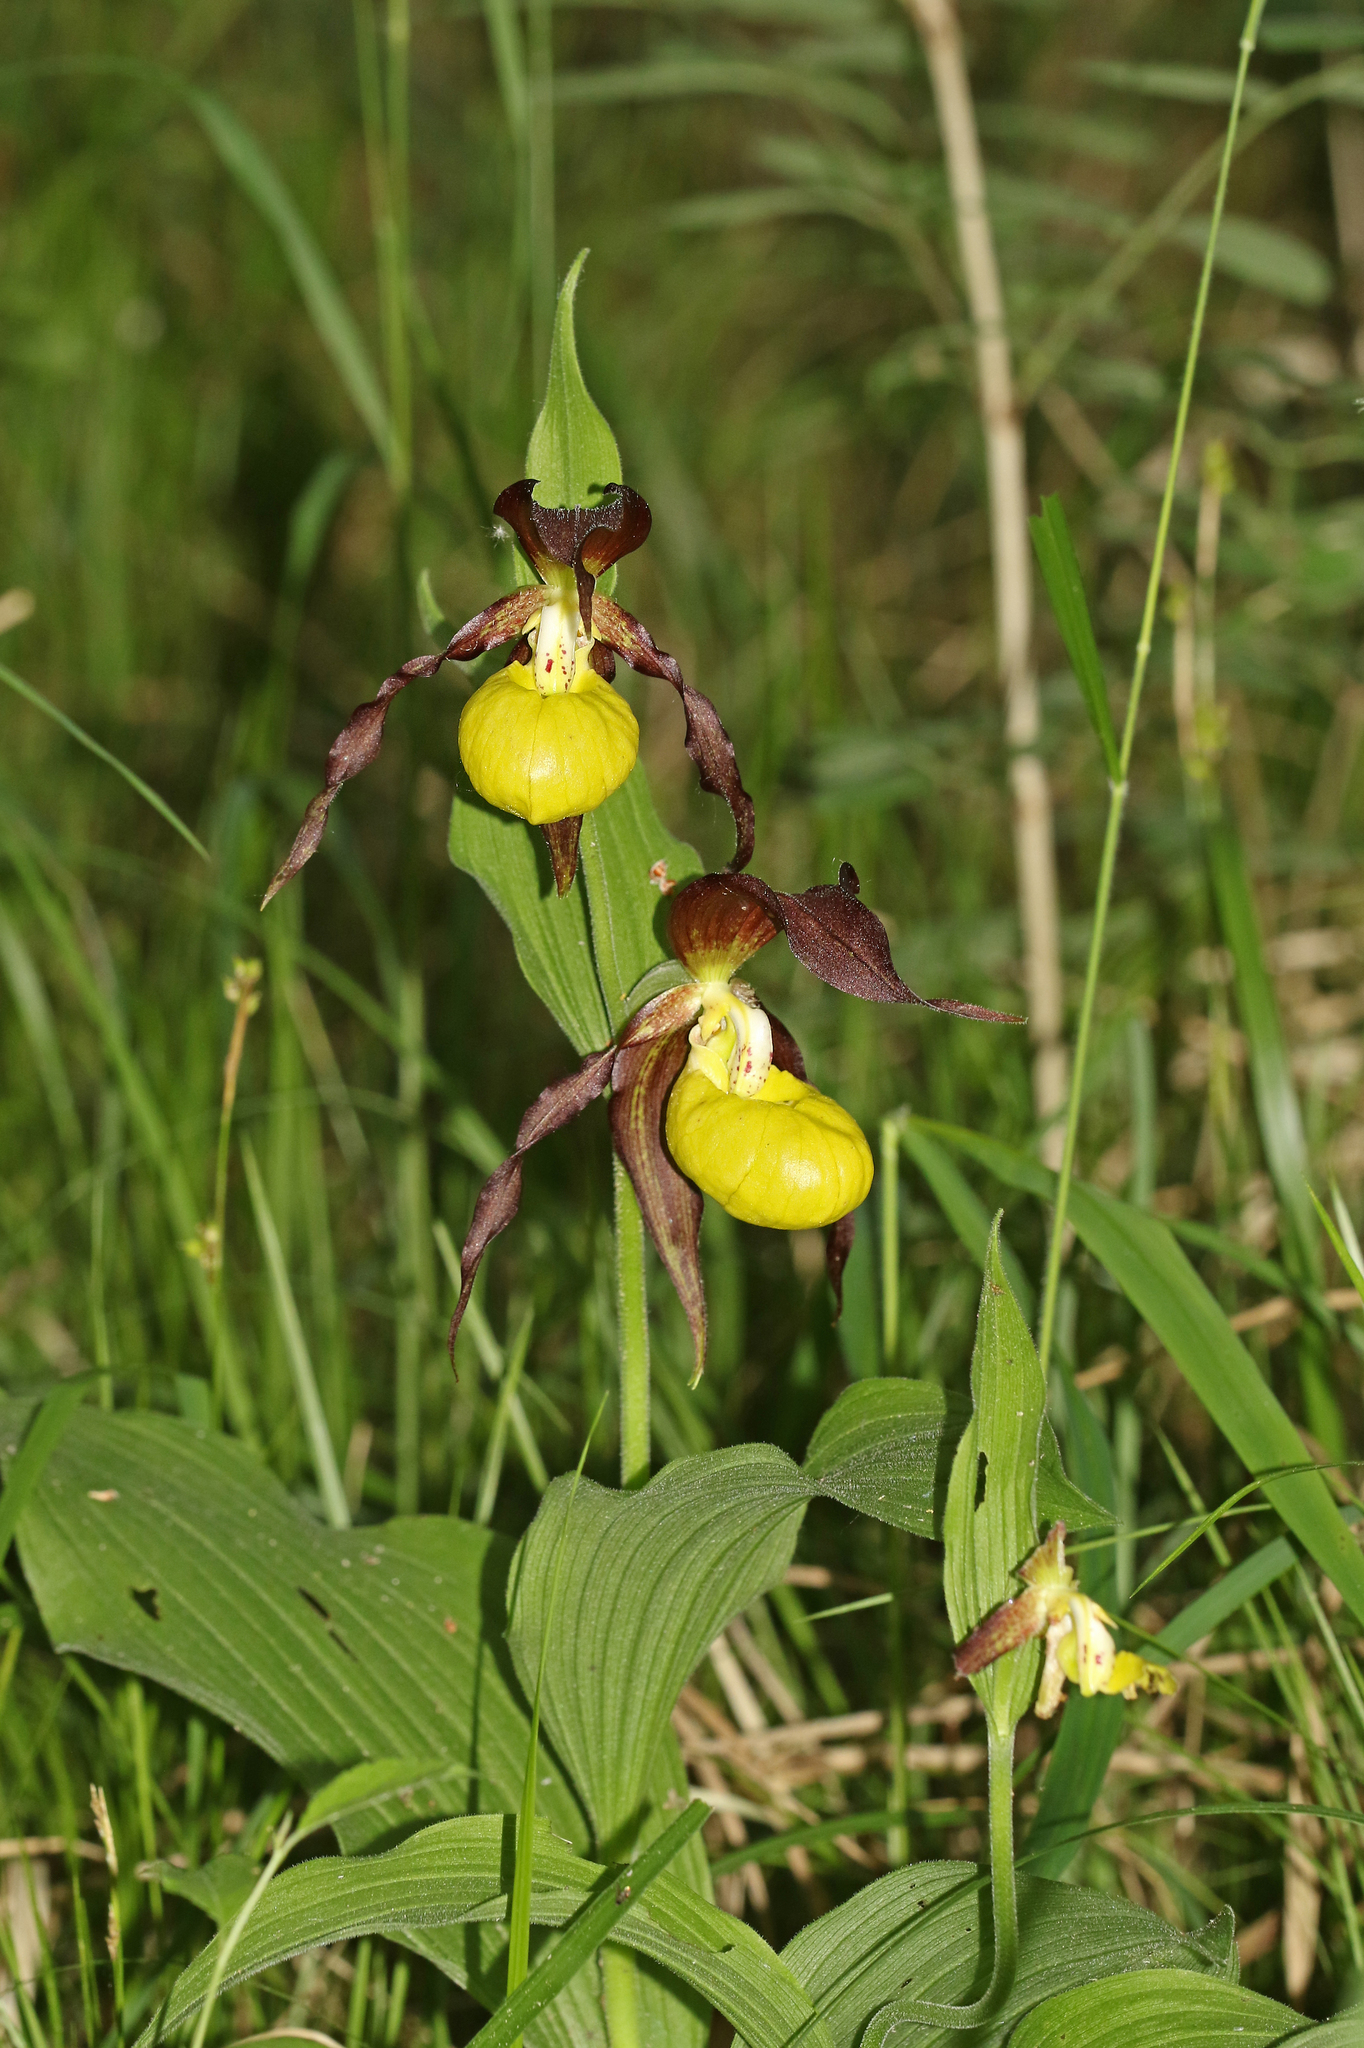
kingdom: Plantae
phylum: Tracheophyta
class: Liliopsida
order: Asparagales
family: Orchidaceae
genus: Cypripedium
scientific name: Cypripedium calceolus
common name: Lady's-slipper
